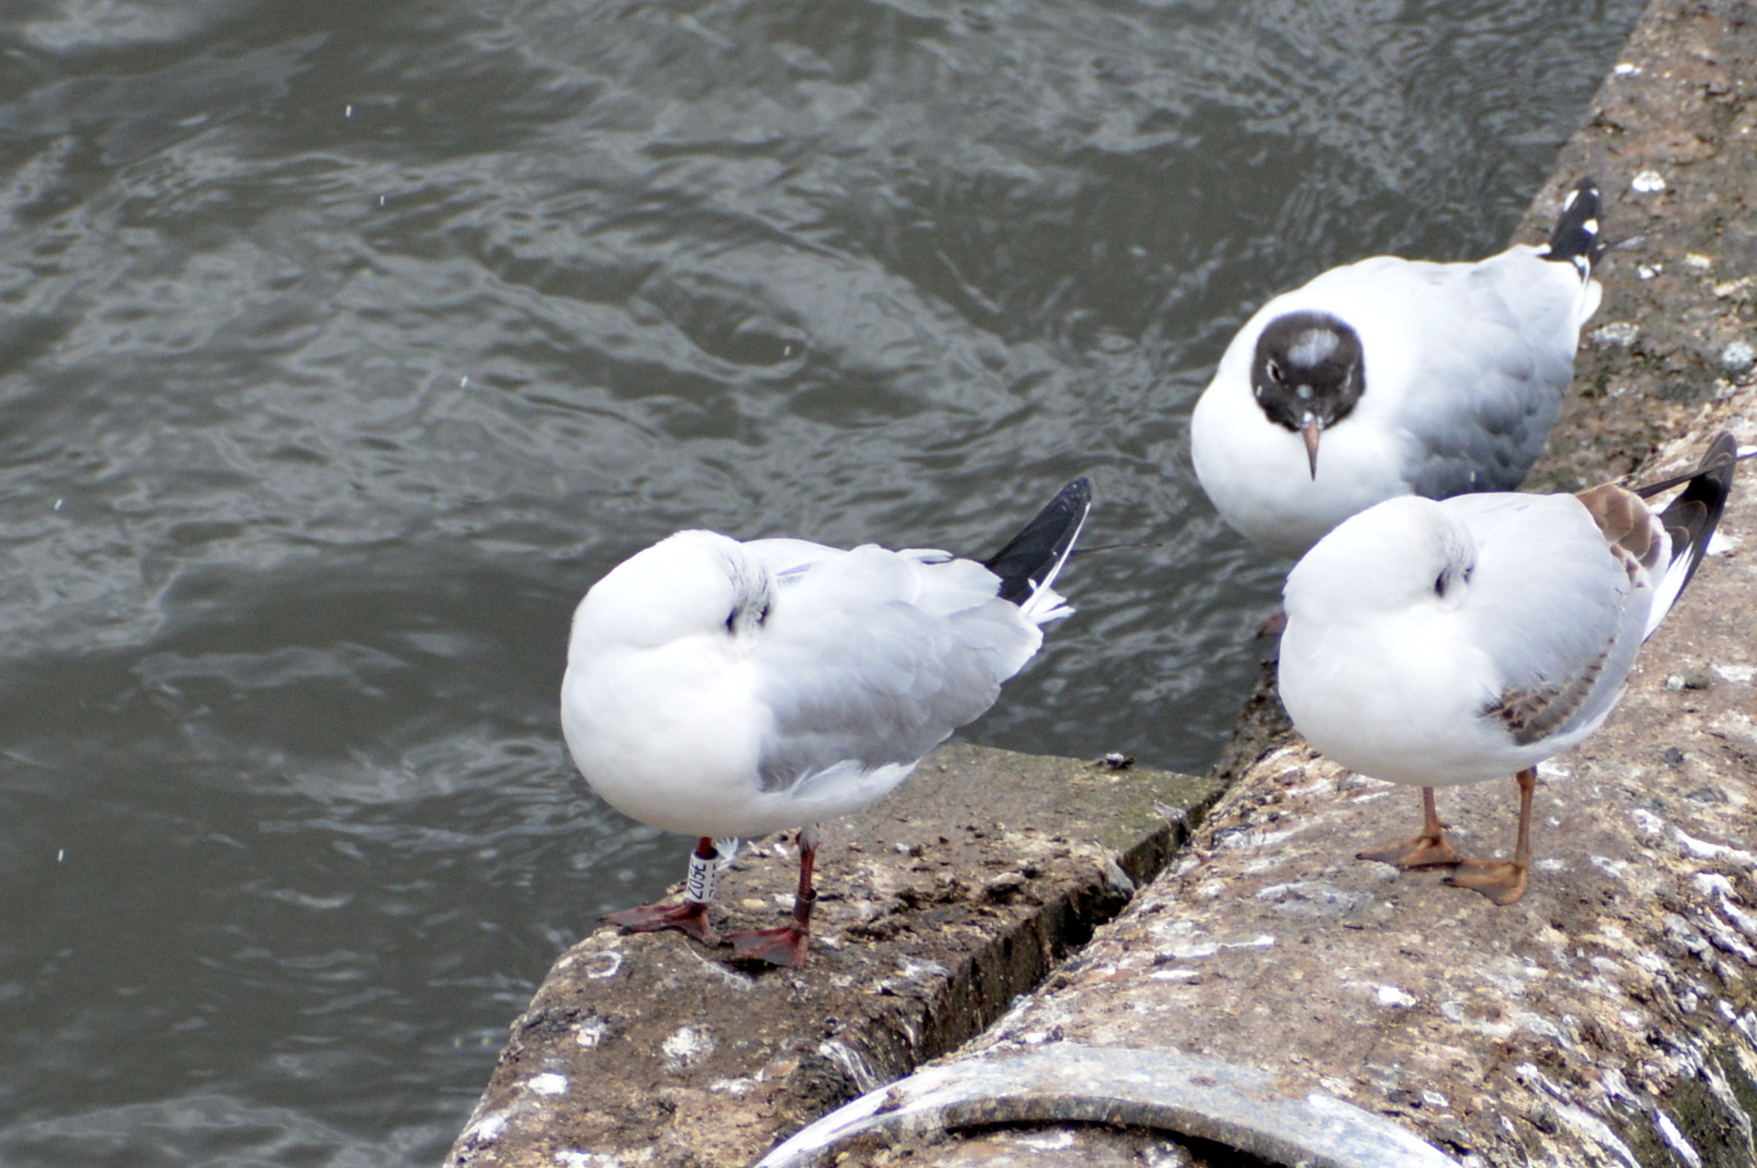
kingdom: Animalia
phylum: Chordata
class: Aves
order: Charadriiformes
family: Laridae
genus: Chroicocephalus
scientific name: Chroicocephalus ridibundus
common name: Black-headed gull
